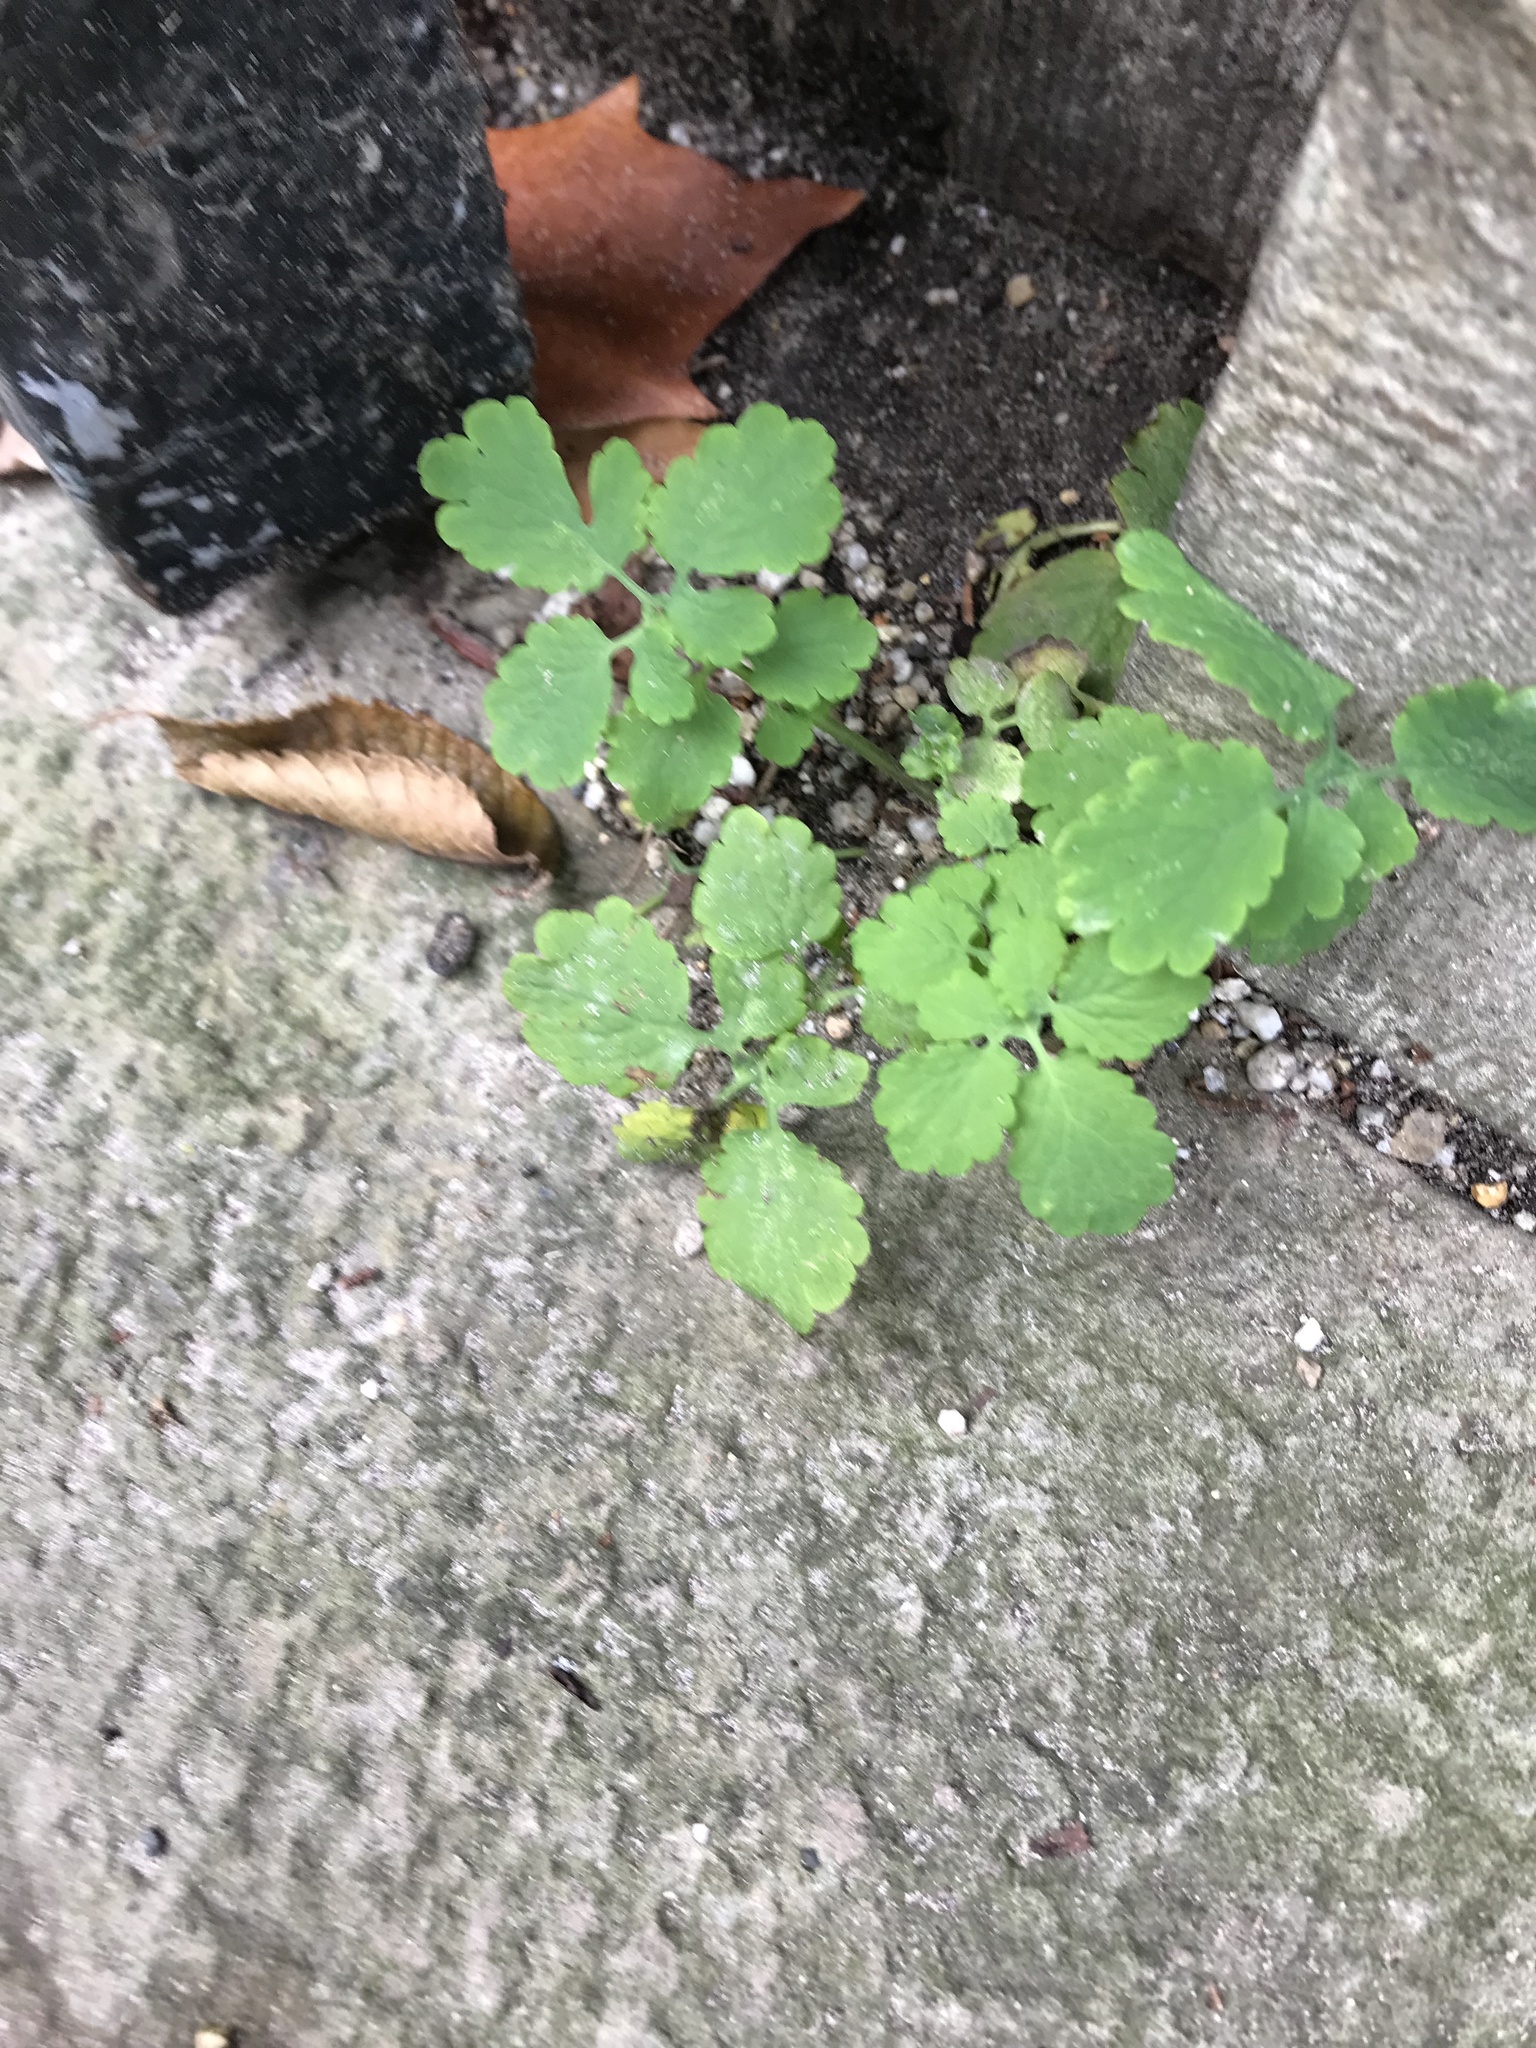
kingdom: Plantae
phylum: Tracheophyta
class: Magnoliopsida
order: Ranunculales
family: Papaveraceae
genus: Chelidonium
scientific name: Chelidonium majus
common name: Greater celandine
